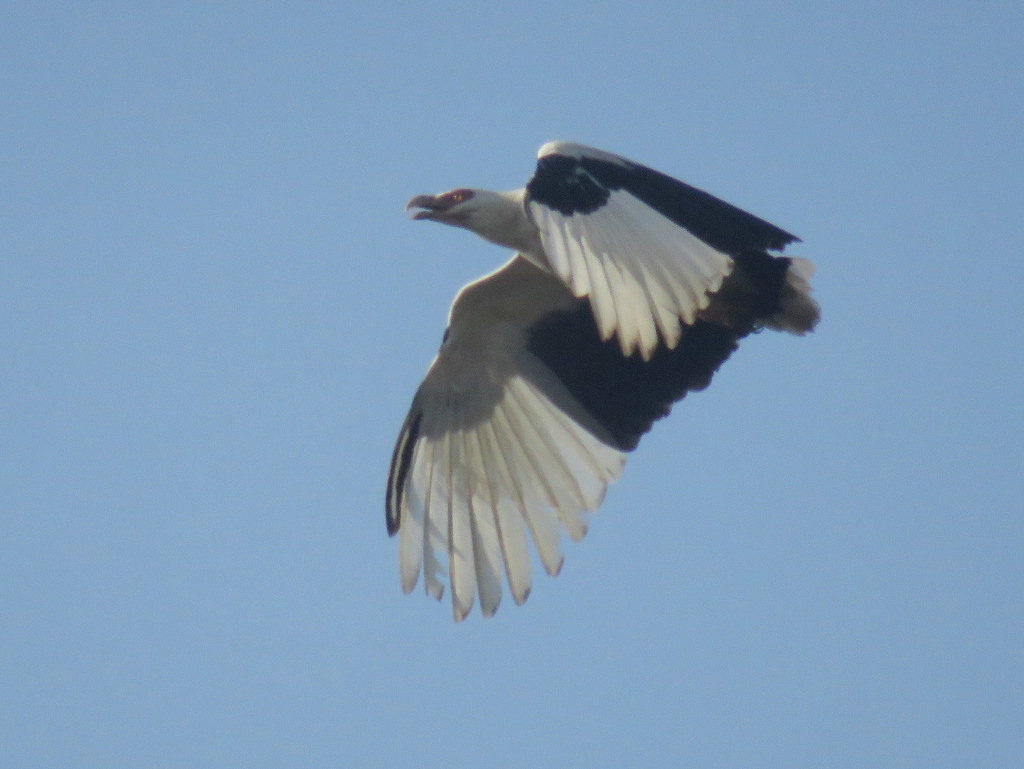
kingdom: Animalia
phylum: Chordata
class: Aves
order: Accipitriformes
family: Accipitridae
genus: Gypohierax
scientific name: Gypohierax angolensis
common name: Palm-nut vulture
